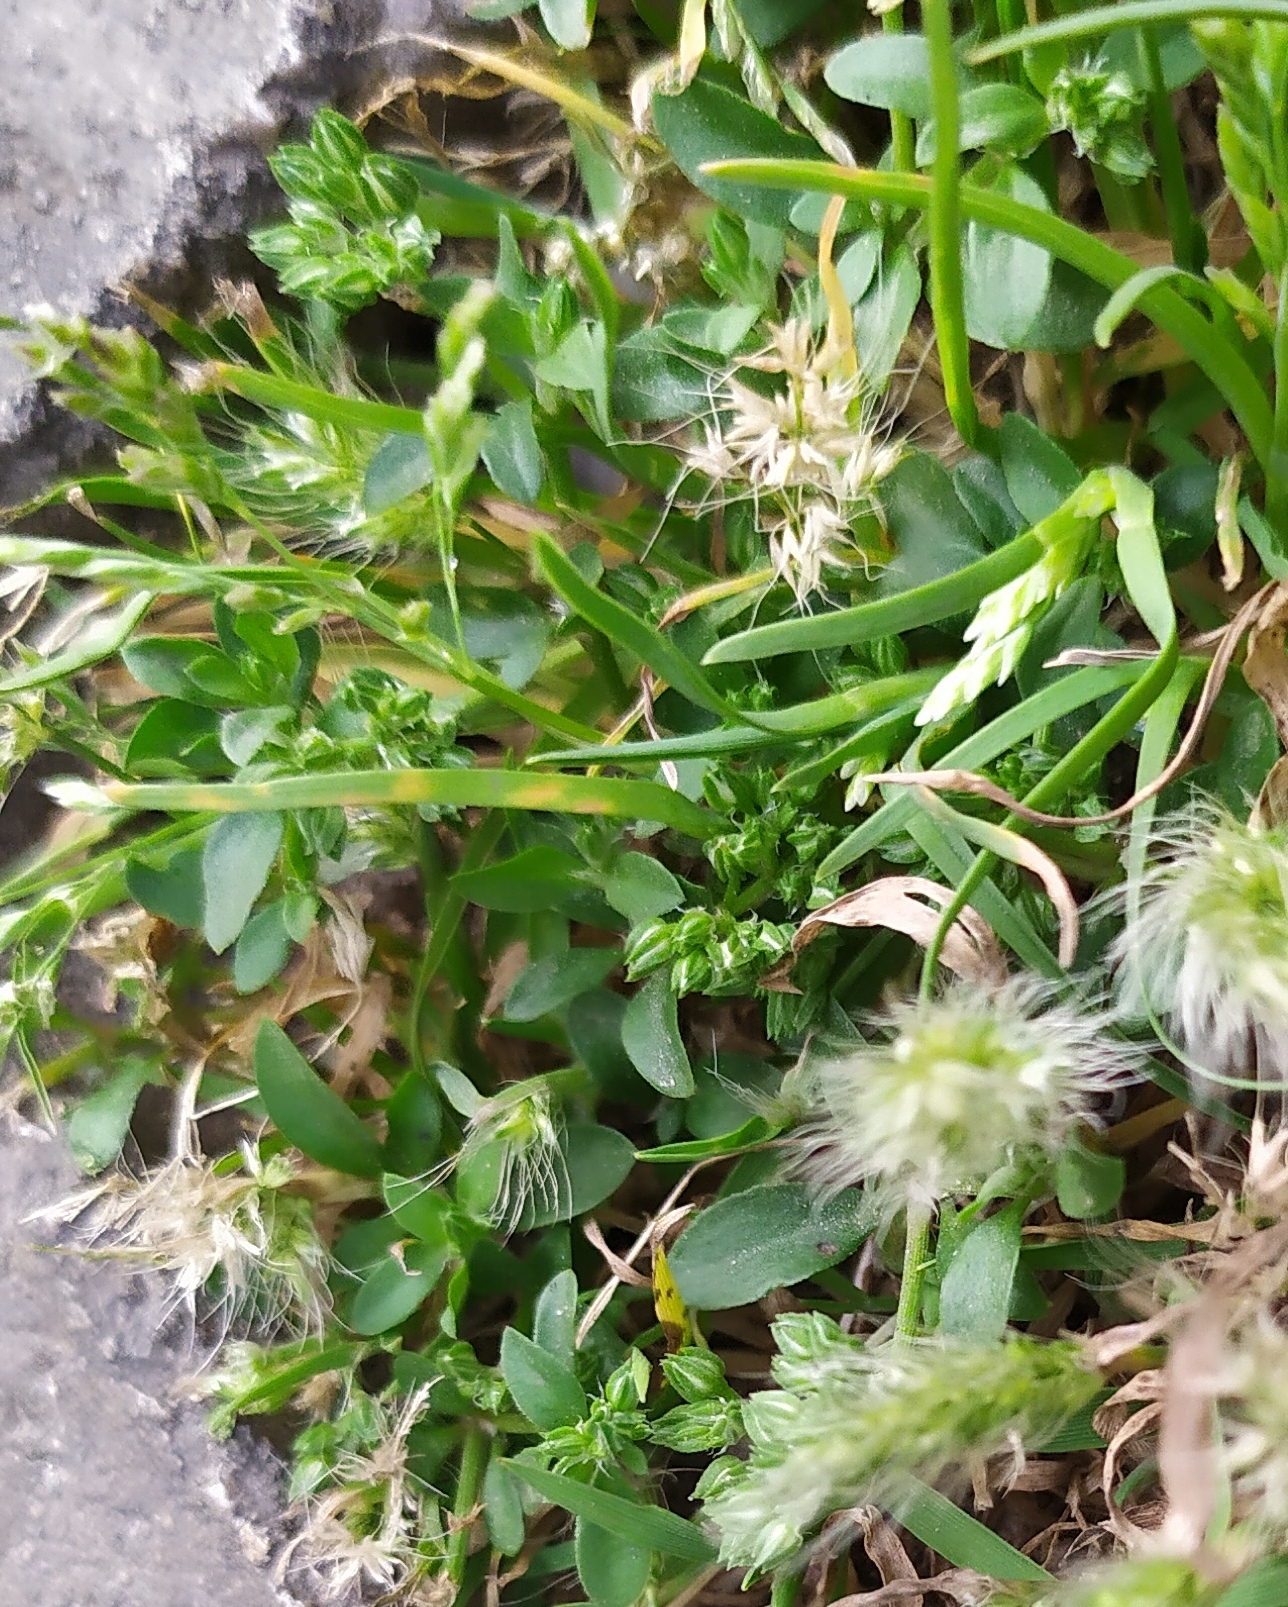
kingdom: Plantae
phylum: Tracheophyta
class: Magnoliopsida
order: Caryophyllales
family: Caryophyllaceae
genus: Polycarpon
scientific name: Polycarpon tetraphyllum
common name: Four-leaved all-seed
